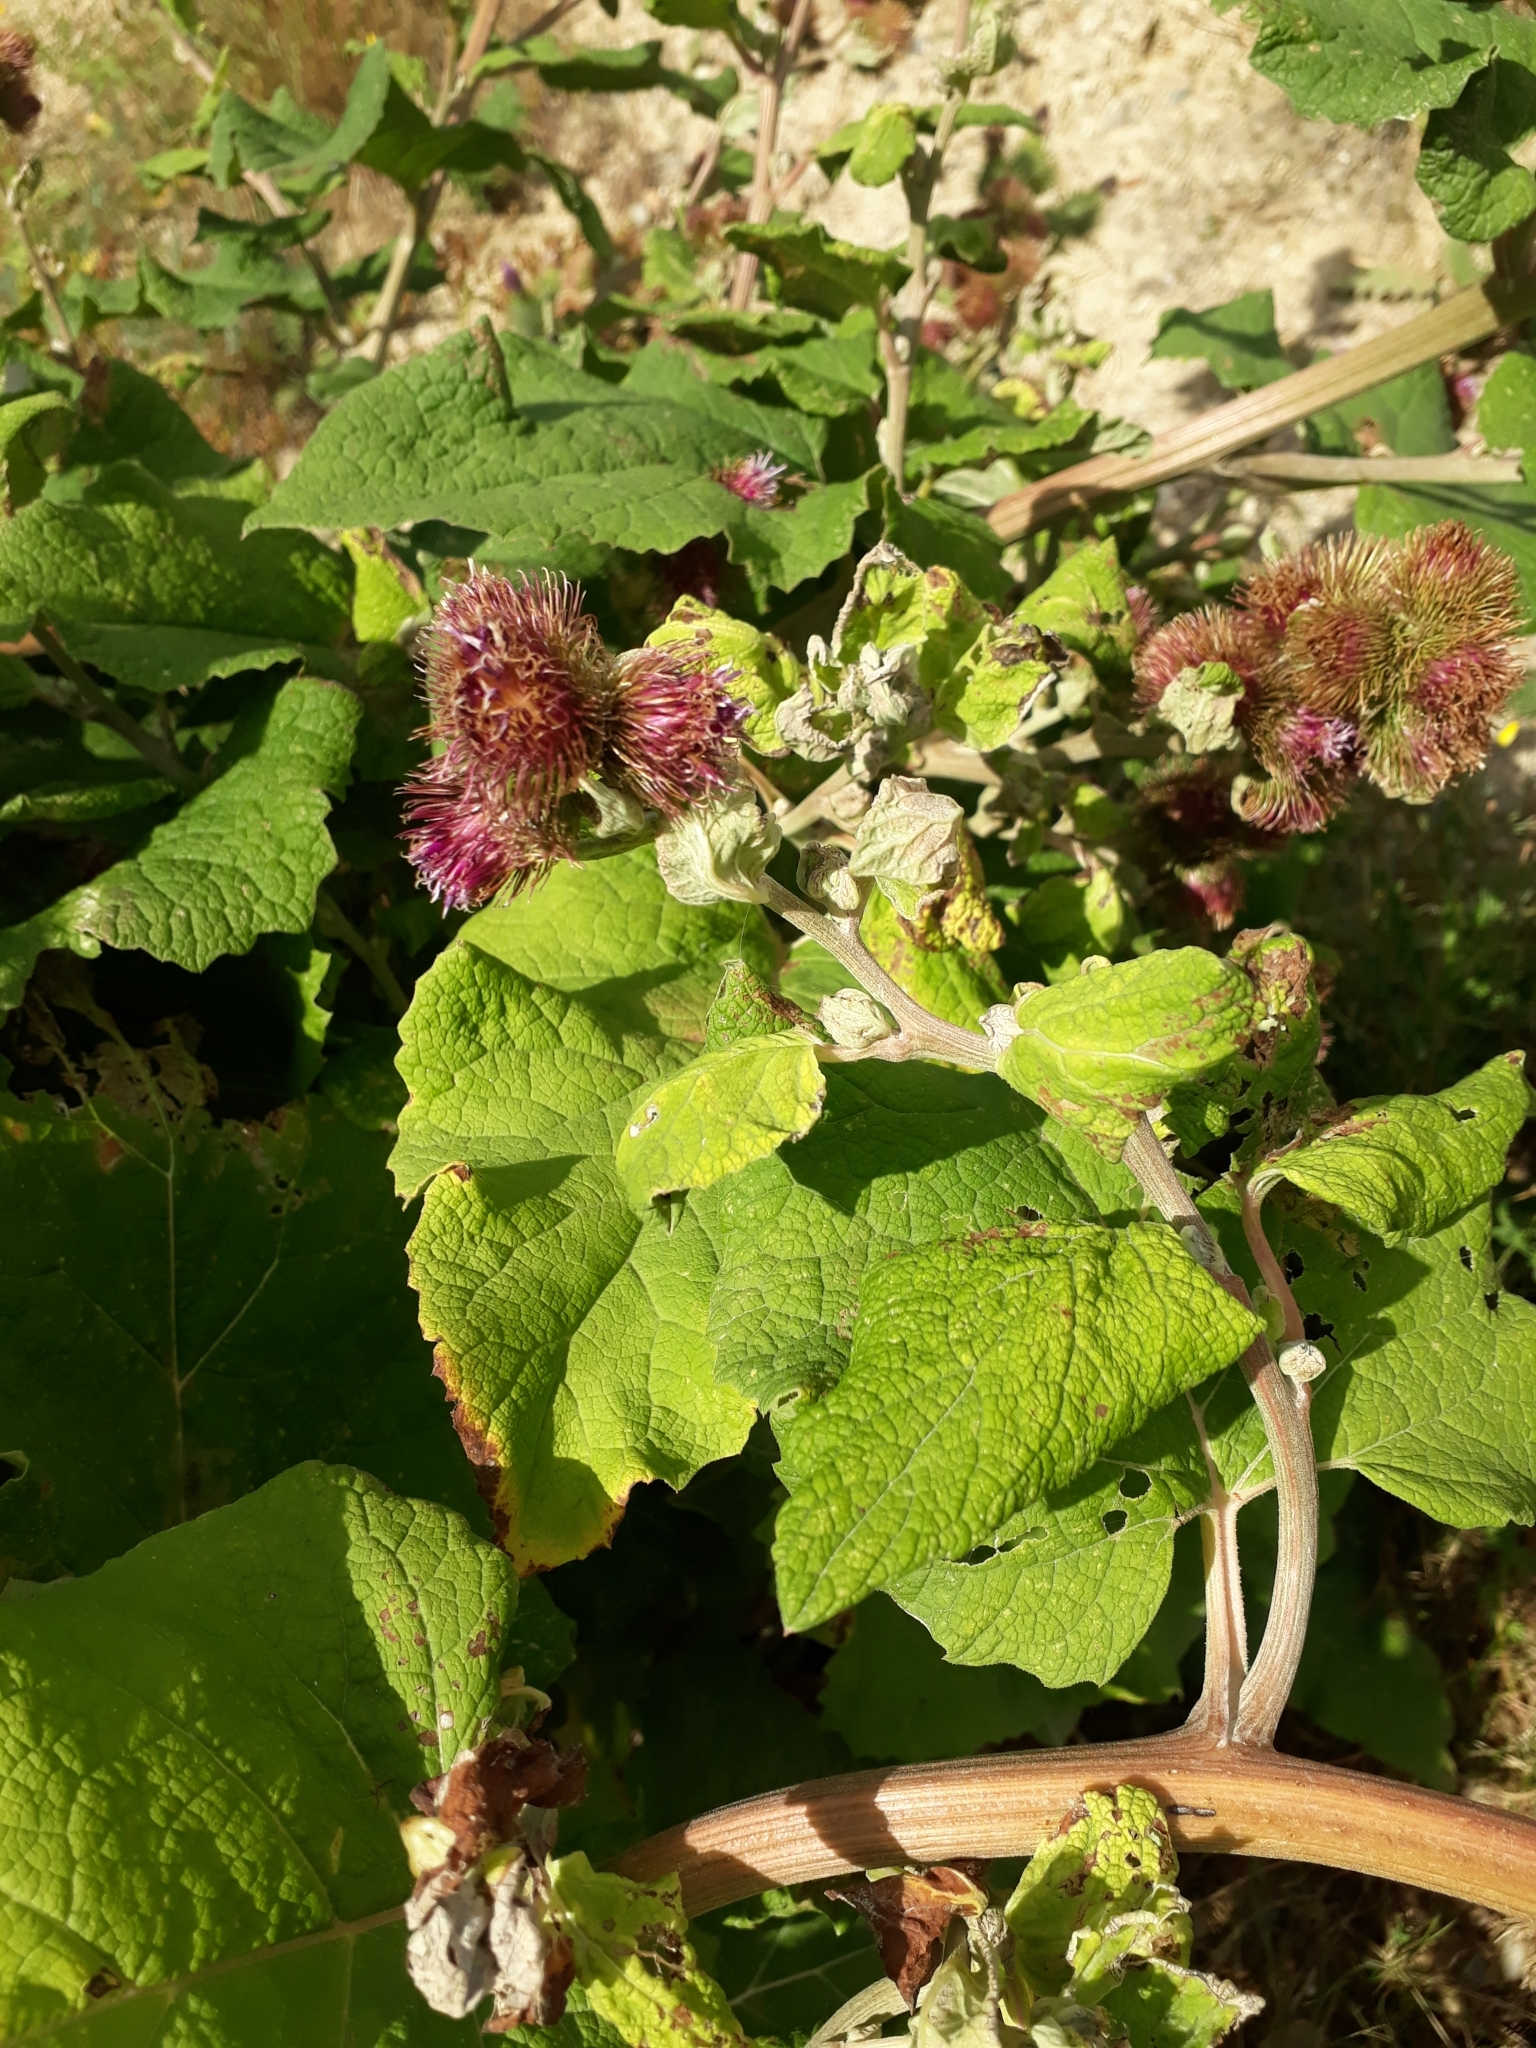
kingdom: Plantae
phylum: Tracheophyta
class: Magnoliopsida
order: Asterales
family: Asteraceae
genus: Arctium
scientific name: Arctium minus
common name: Lesser burdock
